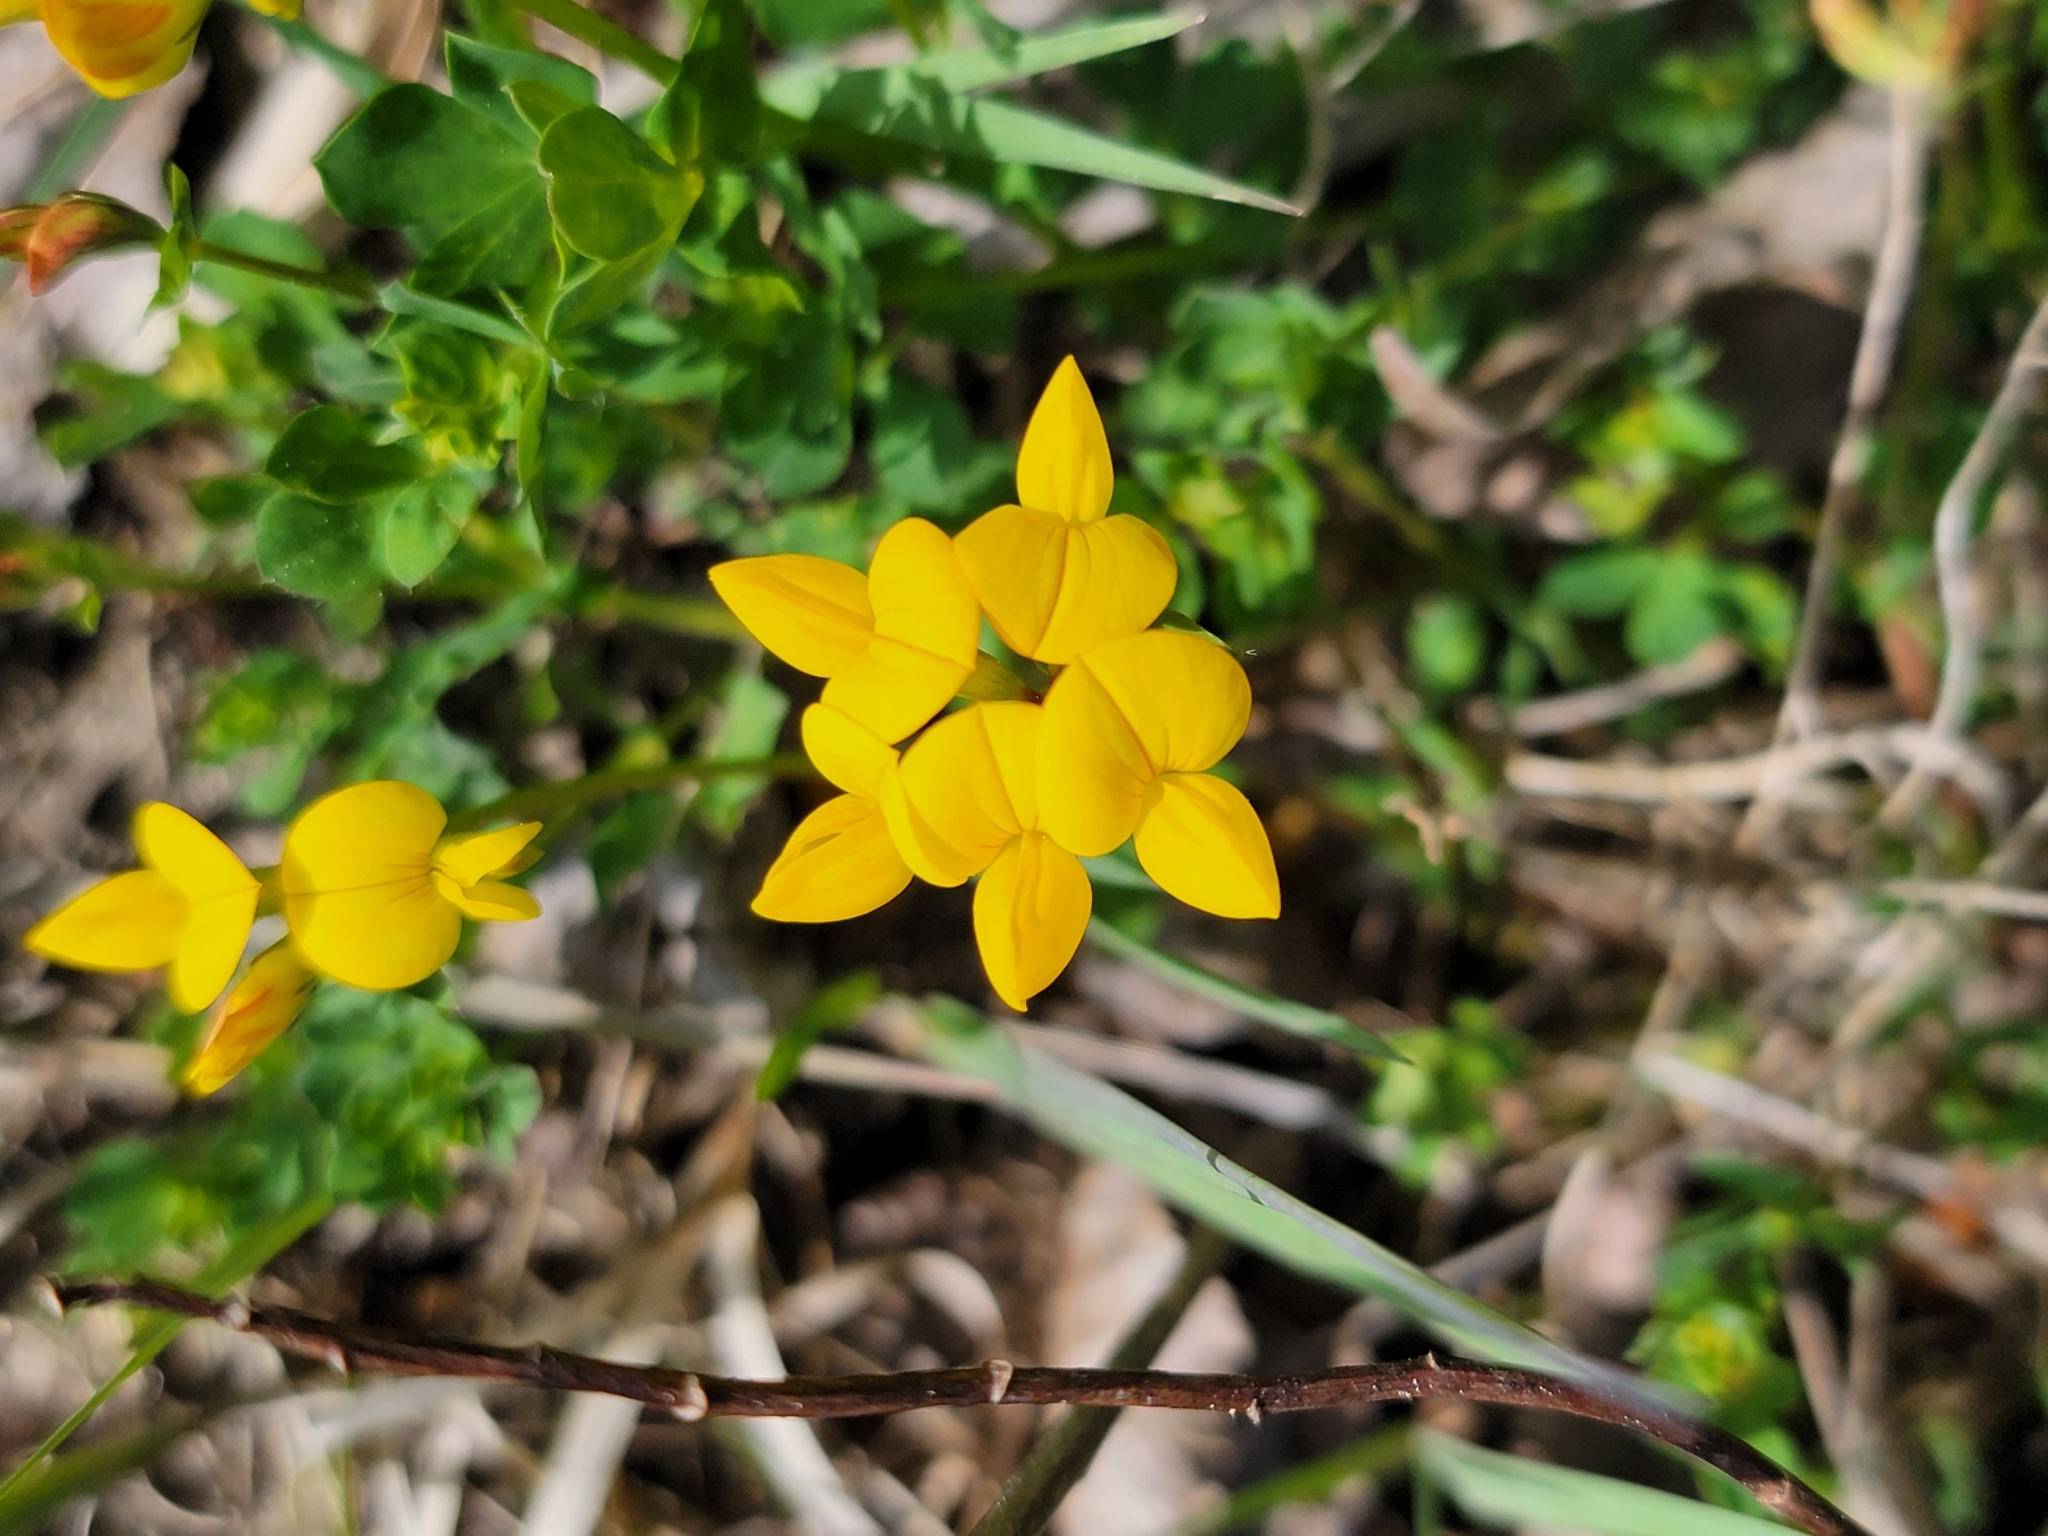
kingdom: Plantae
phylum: Tracheophyta
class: Magnoliopsida
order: Fabales
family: Fabaceae
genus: Lotus
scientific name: Lotus corniculatus
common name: Common bird's-foot-trefoil
